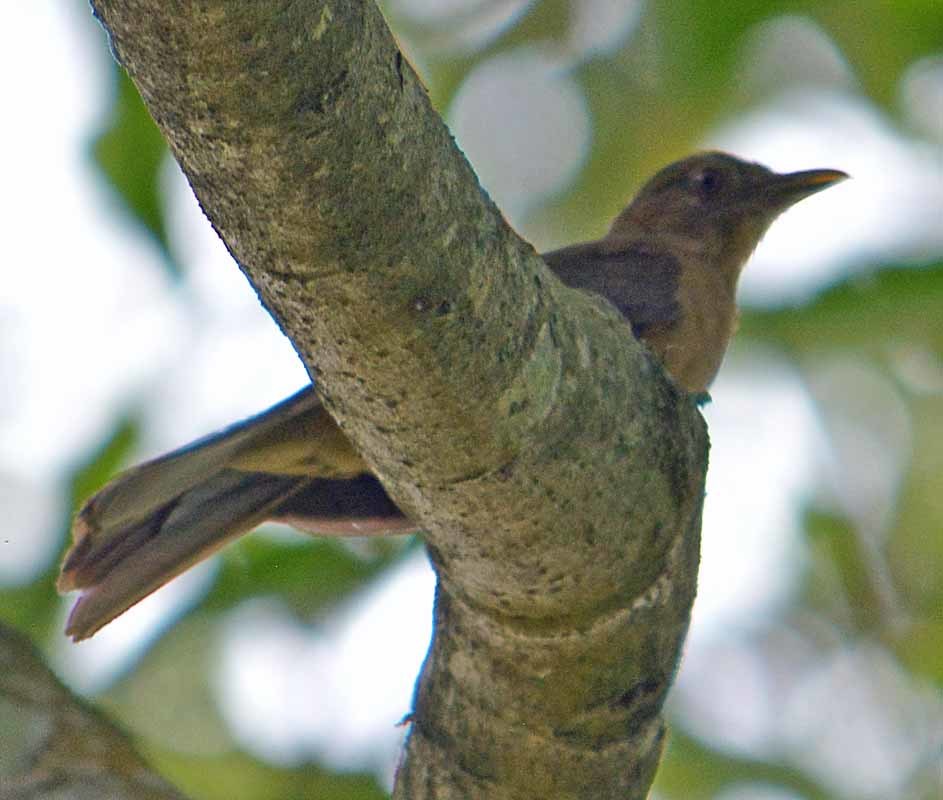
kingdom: Animalia
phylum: Chordata
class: Aves
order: Passeriformes
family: Turdidae
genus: Turdus
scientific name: Turdus grayi
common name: Clay-colored thrush
